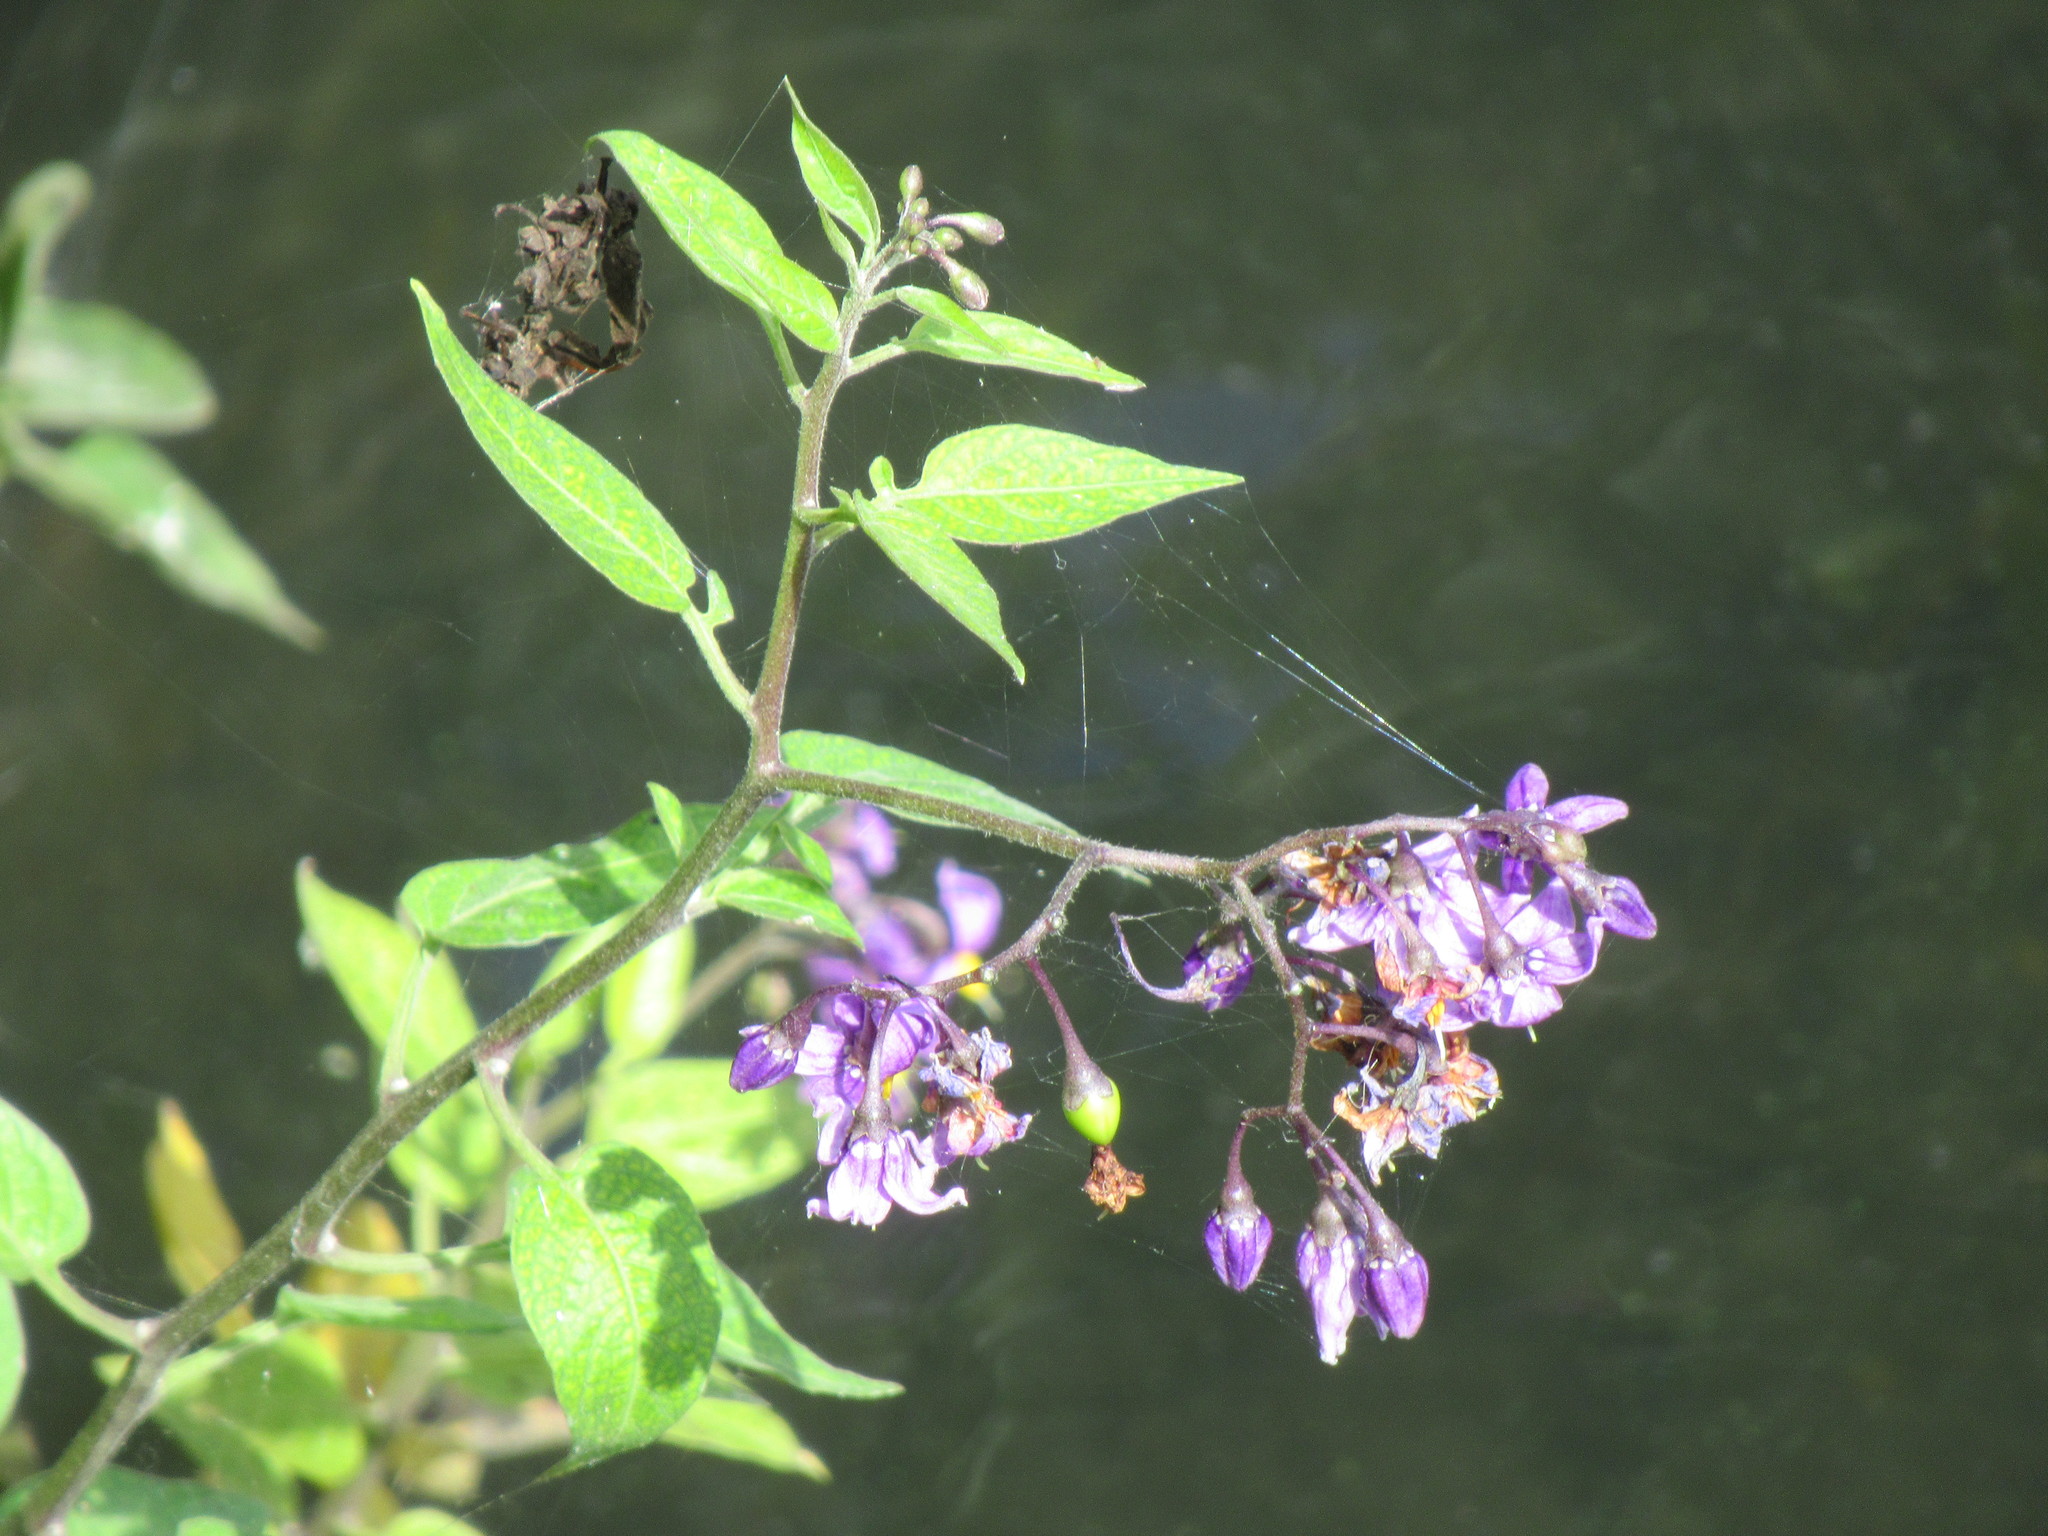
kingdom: Plantae
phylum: Tracheophyta
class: Magnoliopsida
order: Solanales
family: Solanaceae
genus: Solanum
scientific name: Solanum dulcamara
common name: Climbing nightshade
